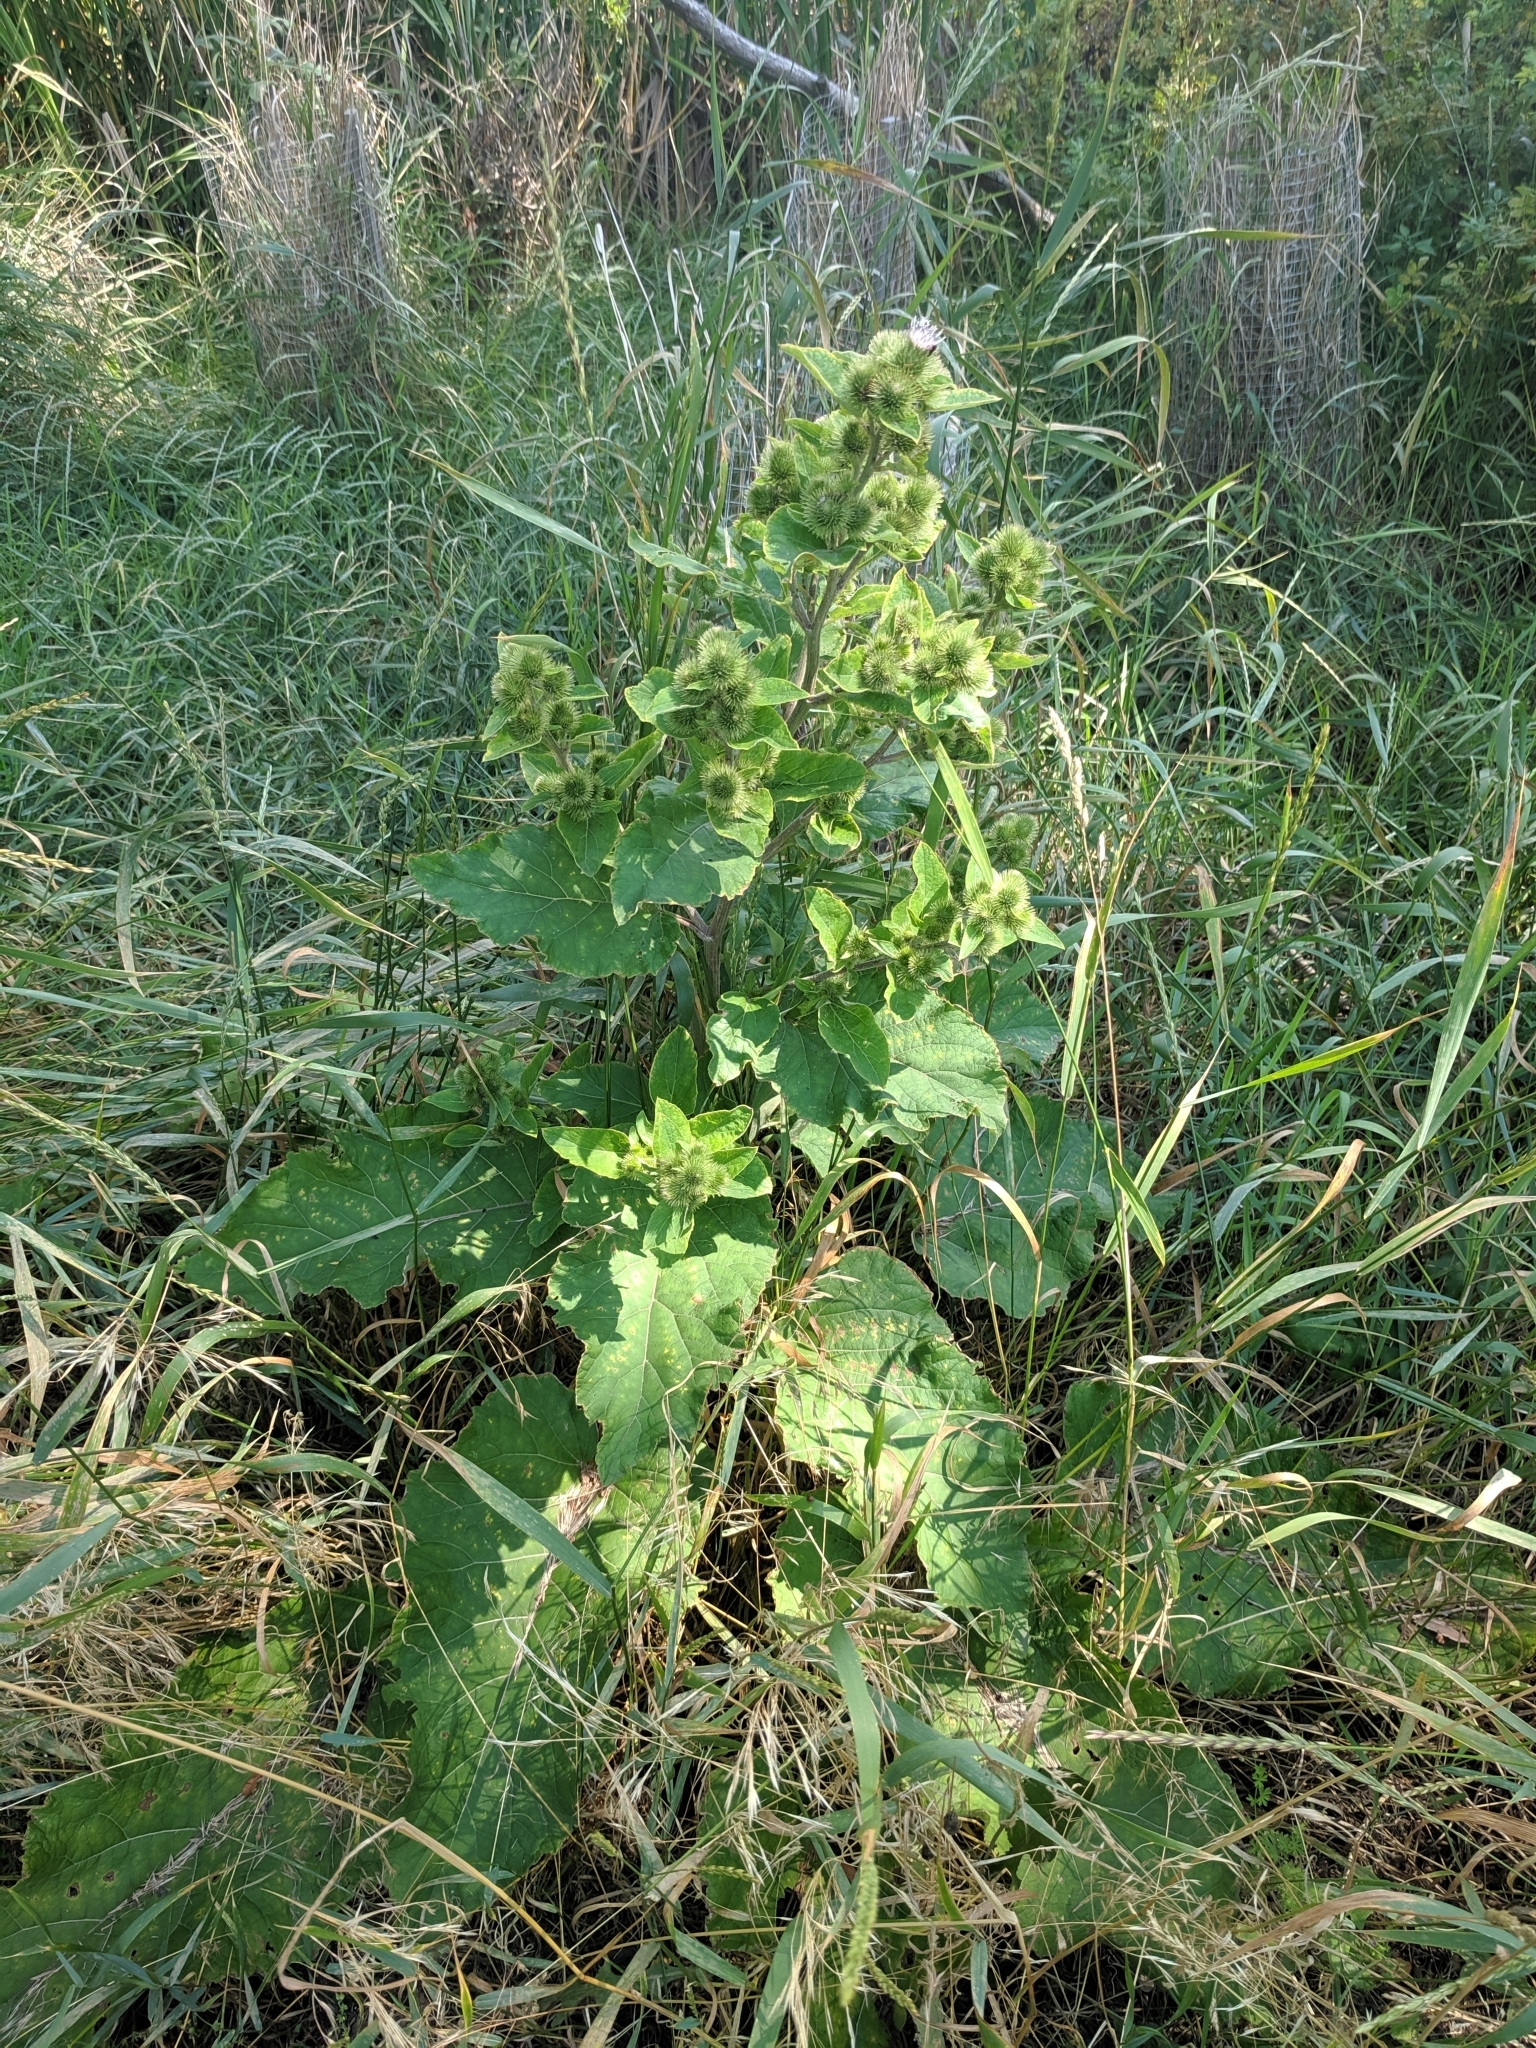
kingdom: Plantae
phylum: Tracheophyta
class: Magnoliopsida
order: Asterales
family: Asteraceae
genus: Arctium
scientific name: Arctium minus
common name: Lesser burdock
